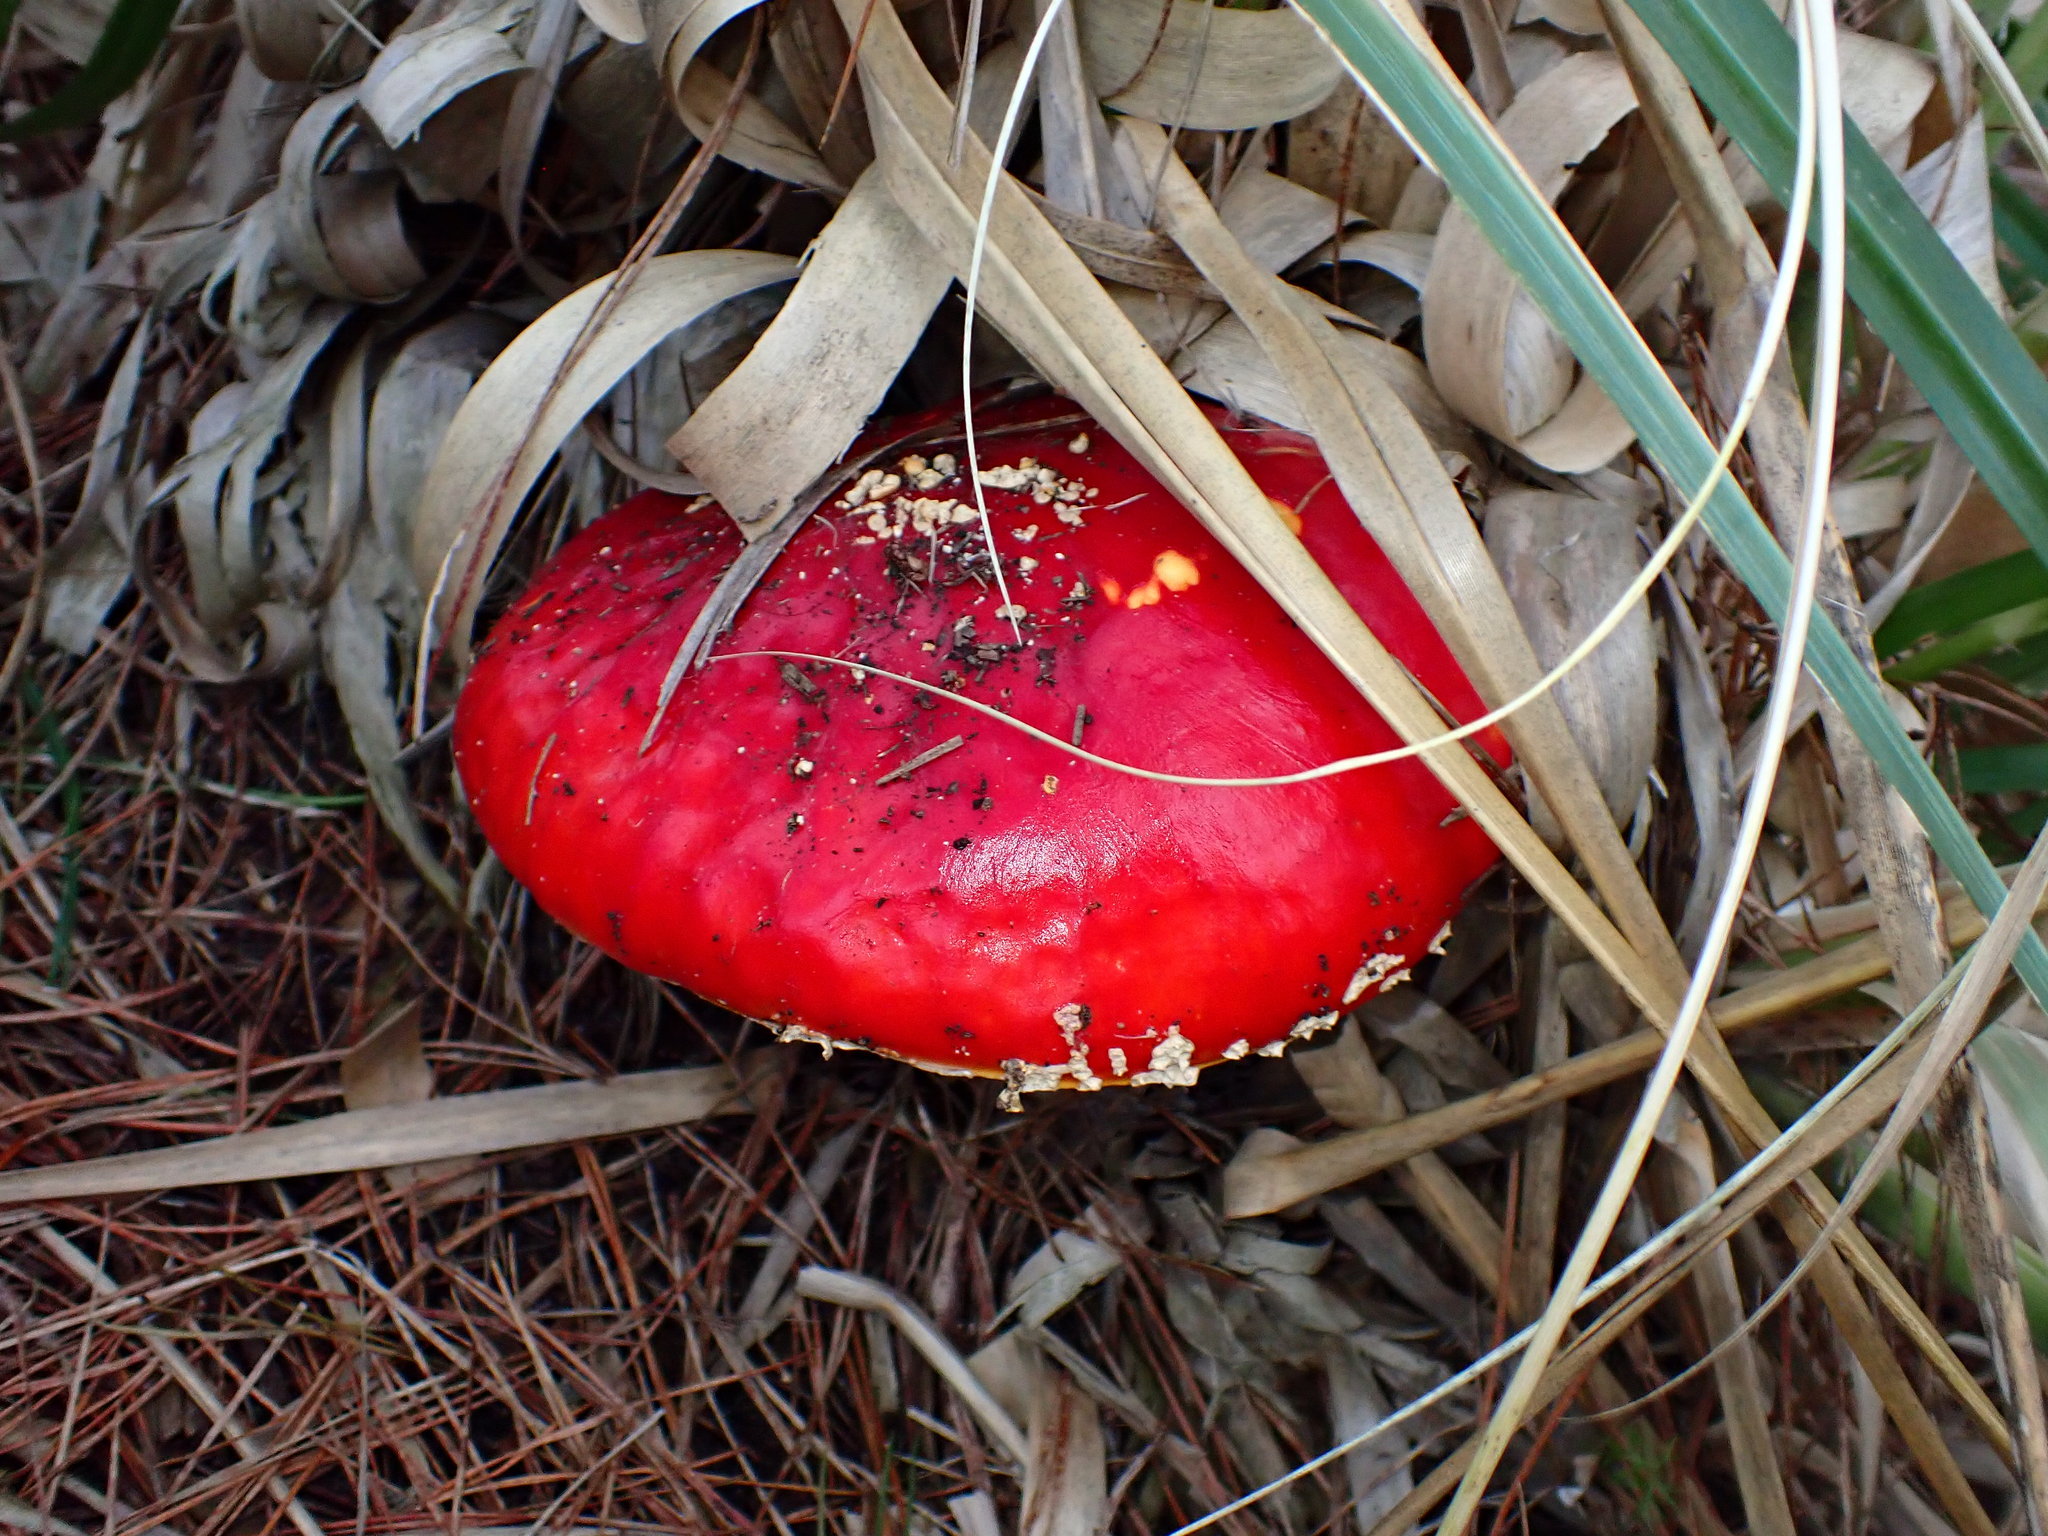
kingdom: Fungi
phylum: Basidiomycota
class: Agaricomycetes
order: Agaricales
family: Amanitaceae
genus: Amanita
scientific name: Amanita muscaria
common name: Fly agaric
